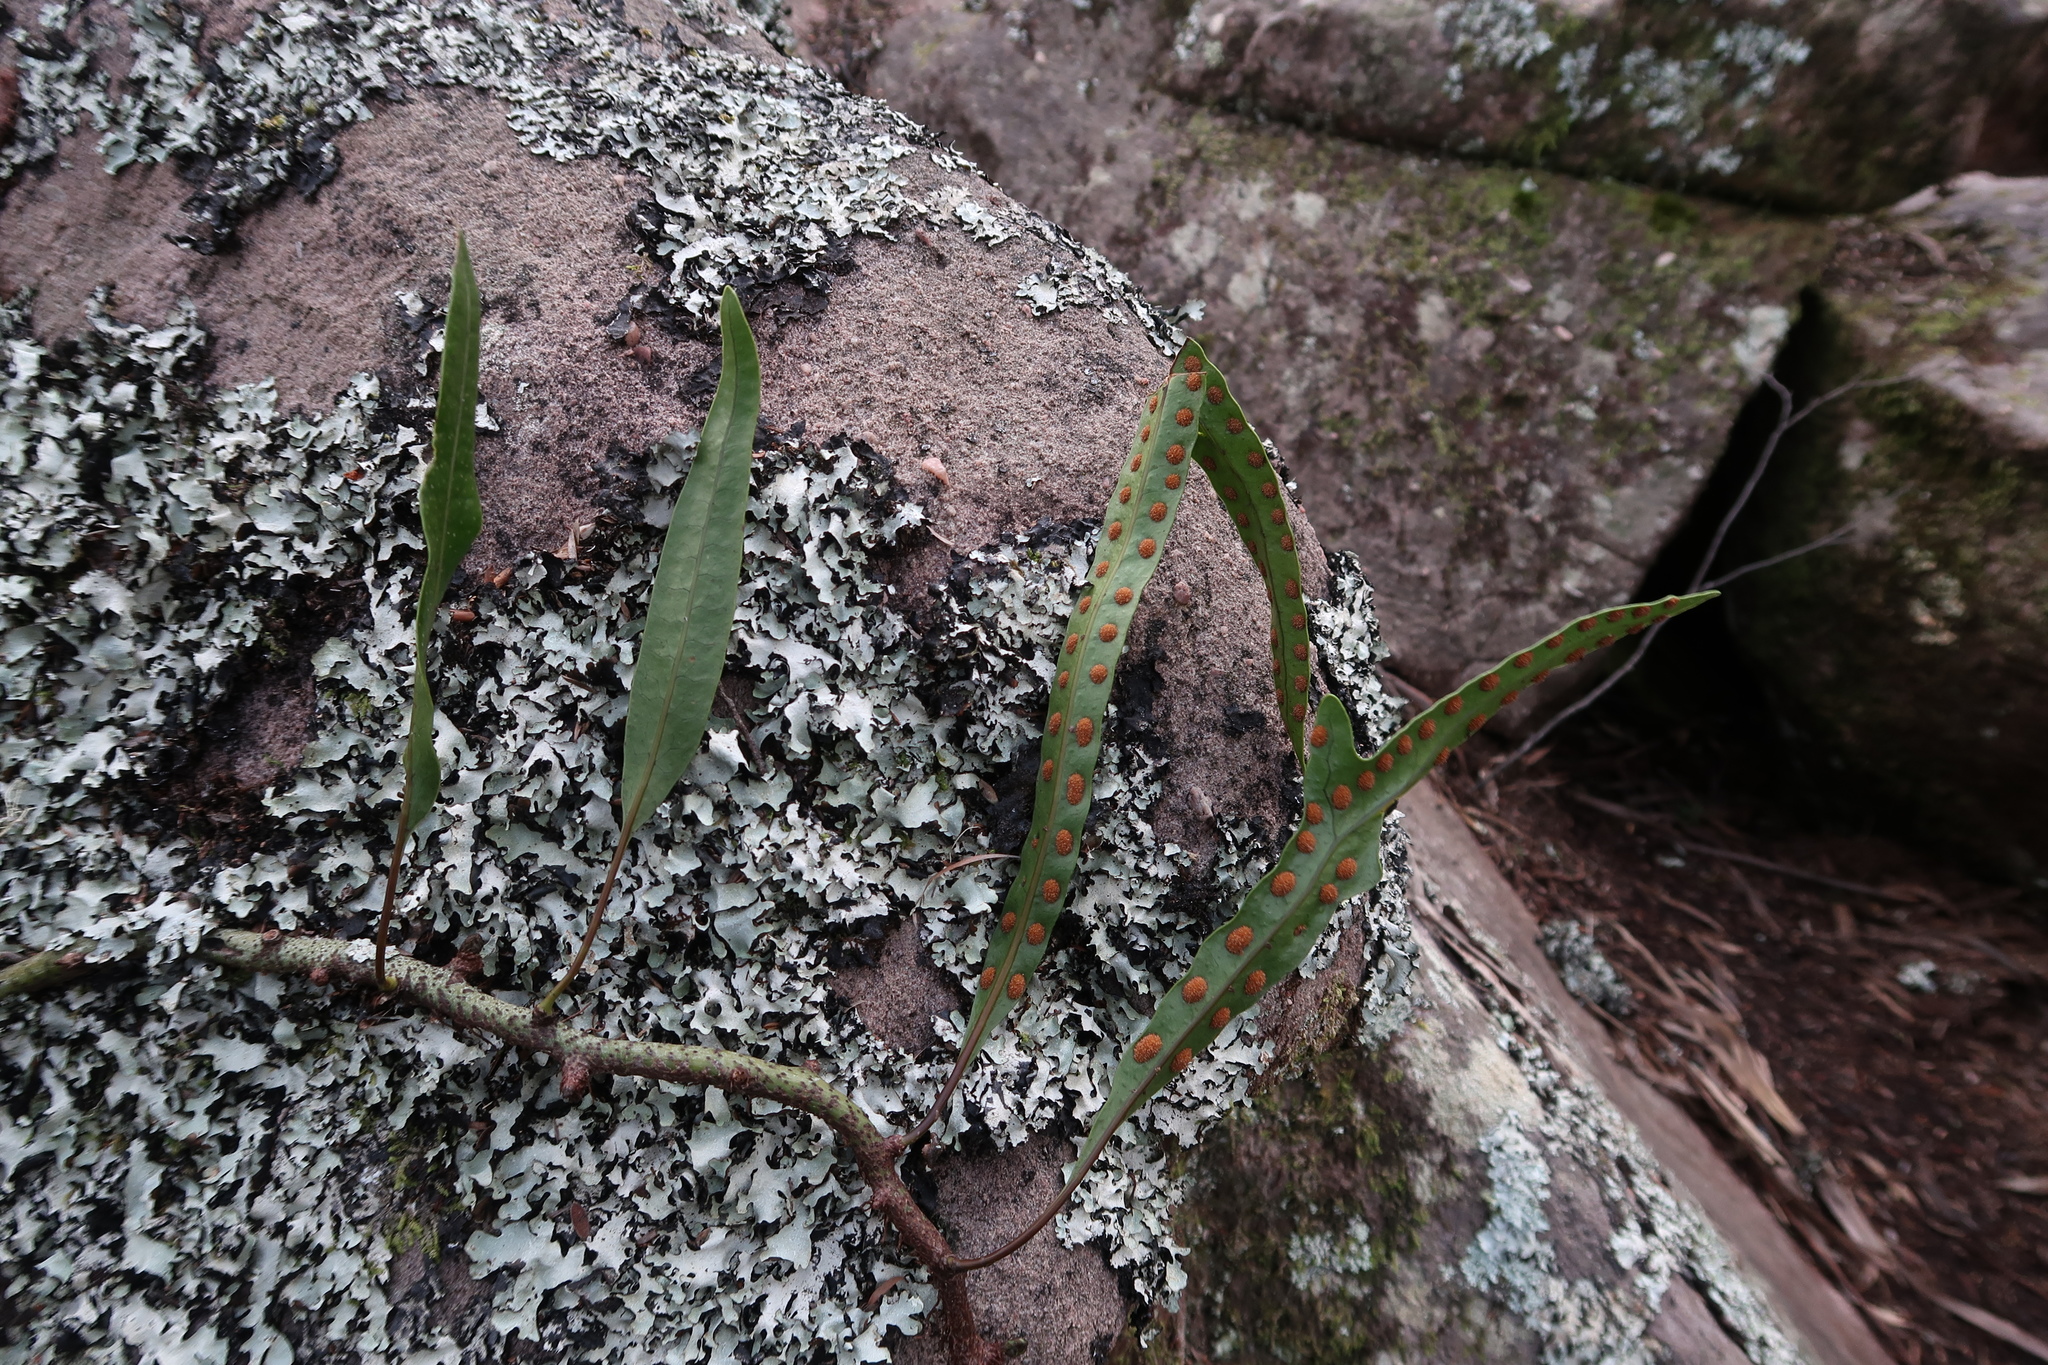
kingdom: Plantae
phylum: Tracheophyta
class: Polypodiopsida
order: Polypodiales
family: Polypodiaceae
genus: Lecanopteris
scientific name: Lecanopteris pustulata
